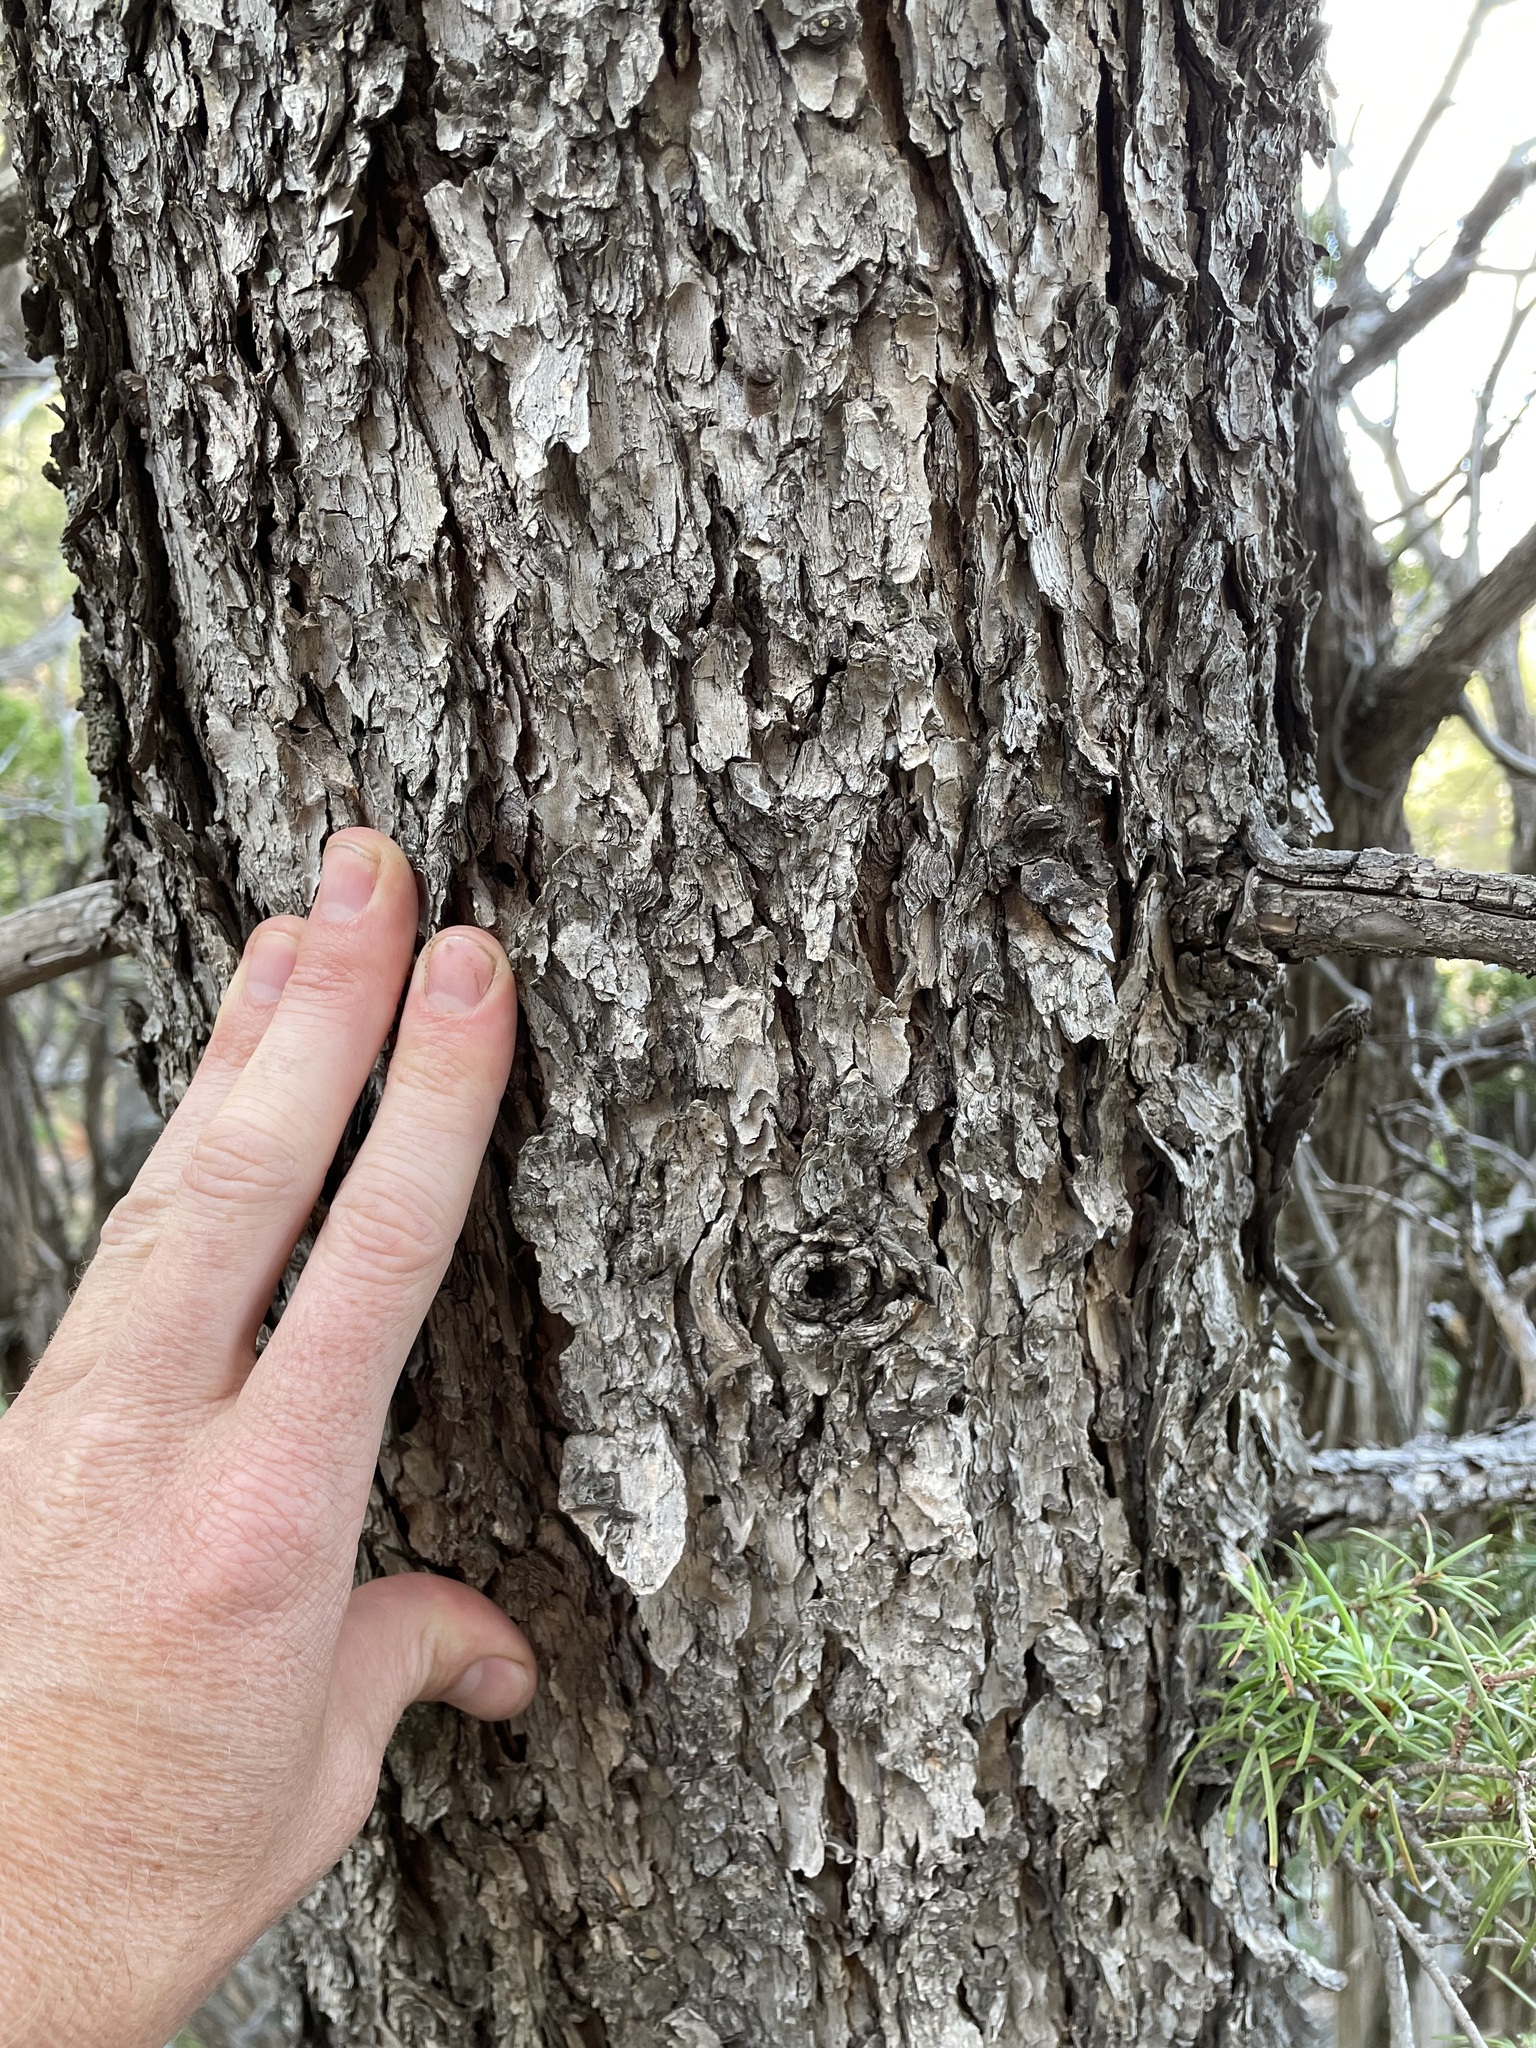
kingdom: Plantae
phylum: Tracheophyta
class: Pinopsida
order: Pinales
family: Pinaceae
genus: Pseudotsuga
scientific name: Pseudotsuga menziesii
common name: Douglas fir
